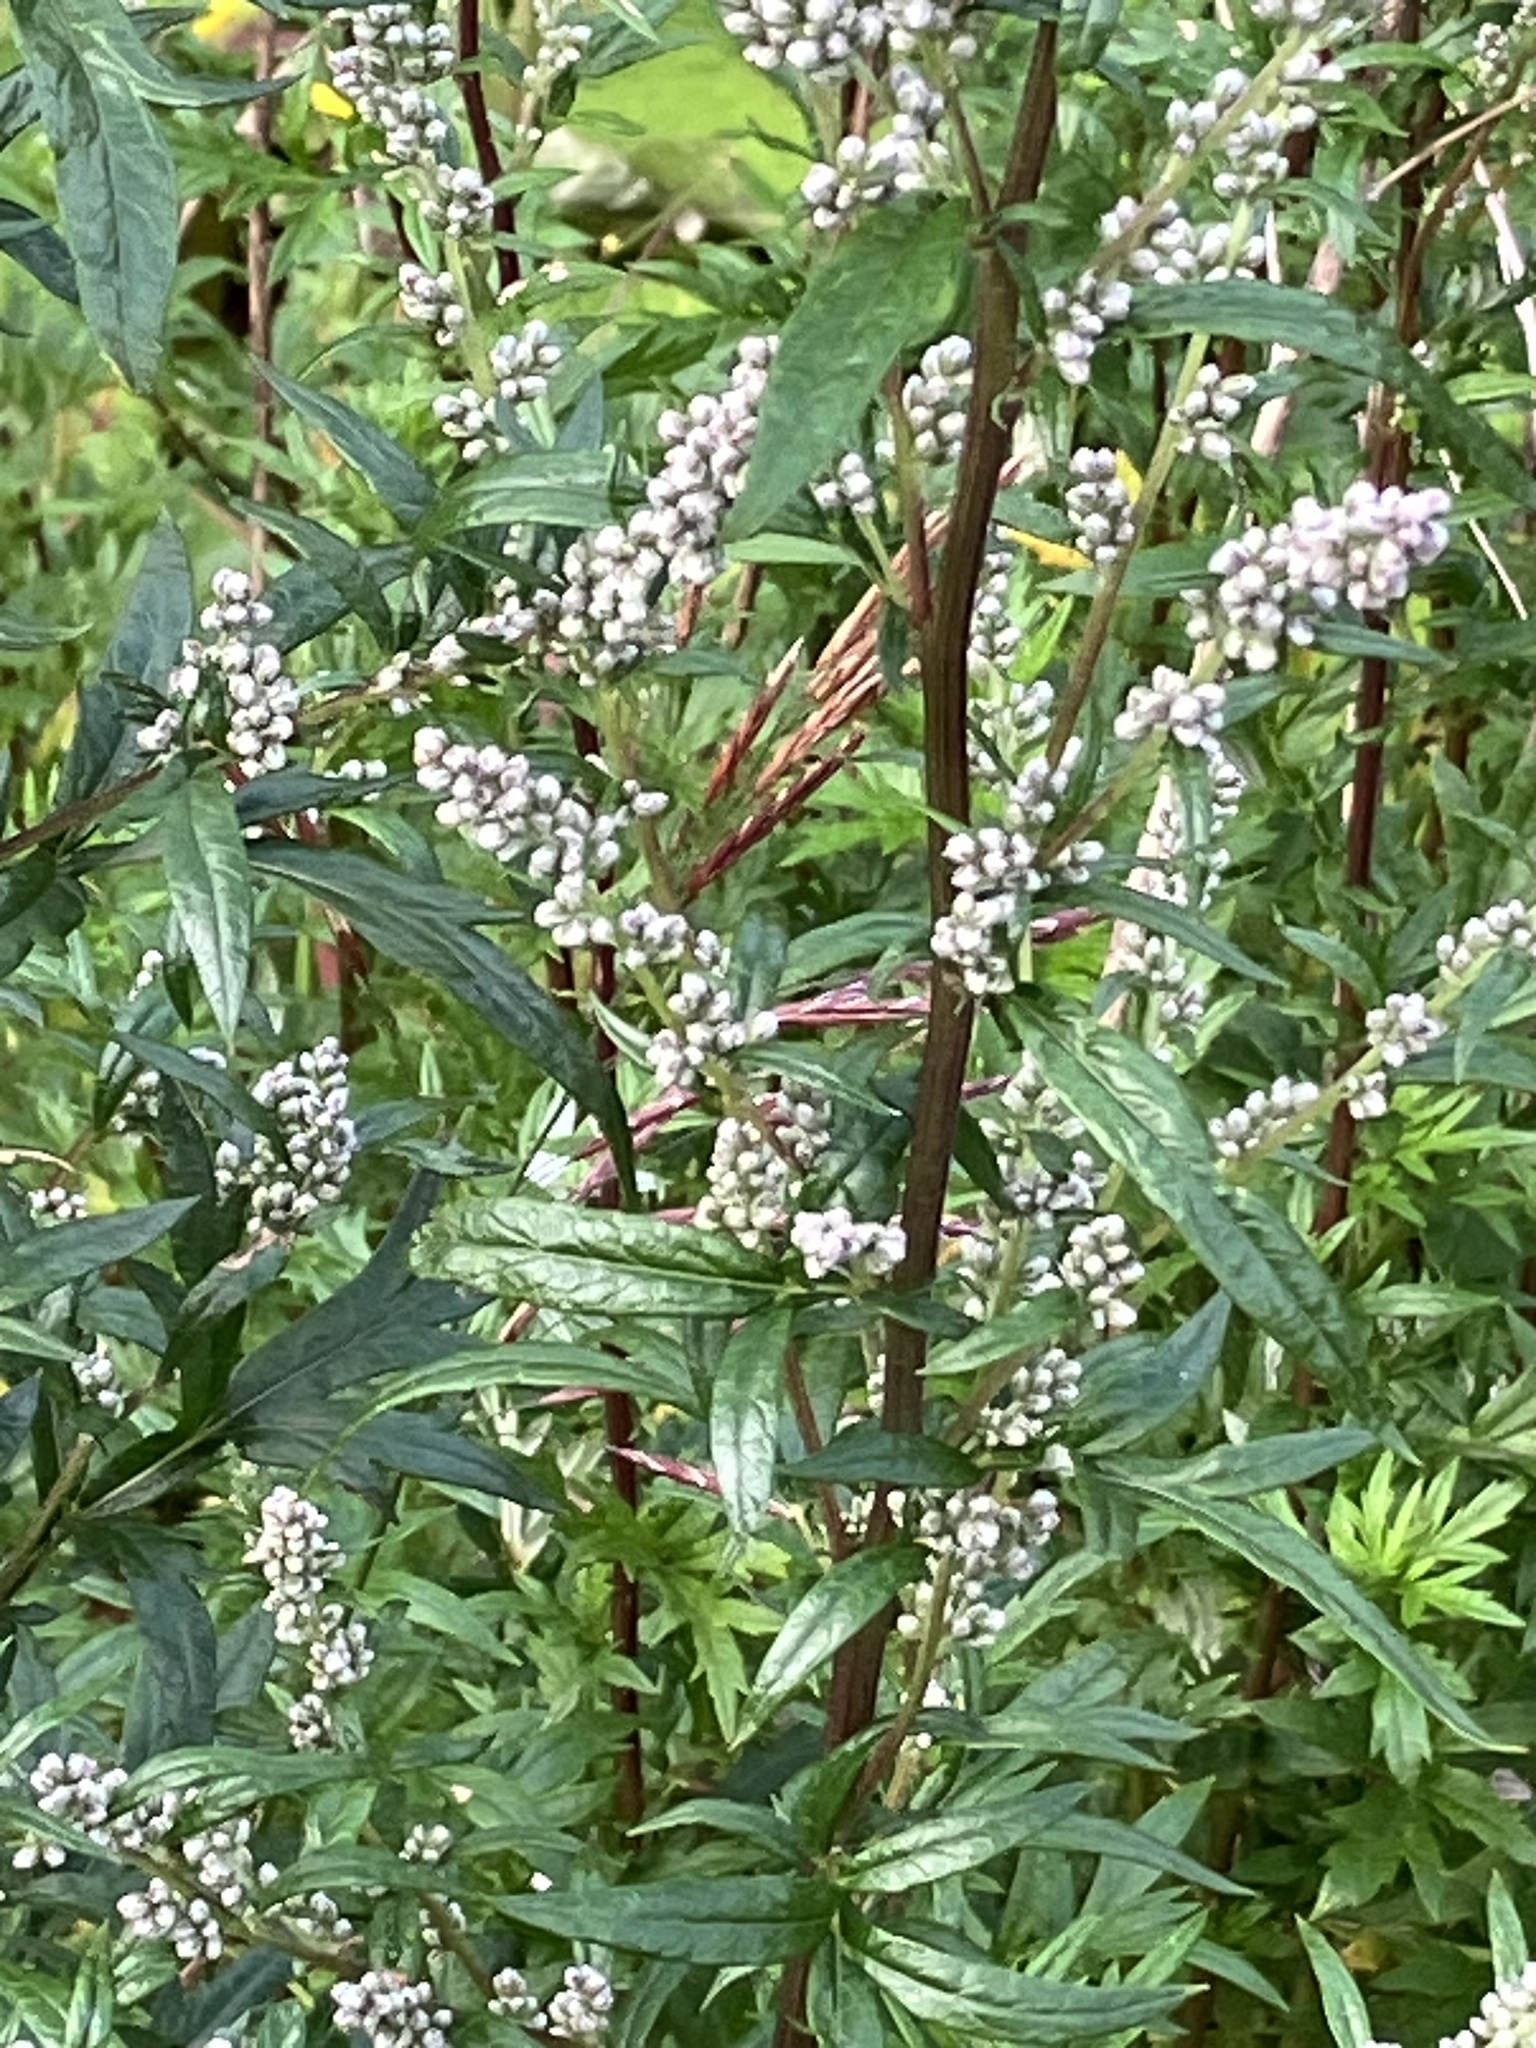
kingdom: Plantae
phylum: Tracheophyta
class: Magnoliopsida
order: Asterales
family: Asteraceae
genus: Artemisia
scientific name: Artemisia vulgaris
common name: Mugwort
